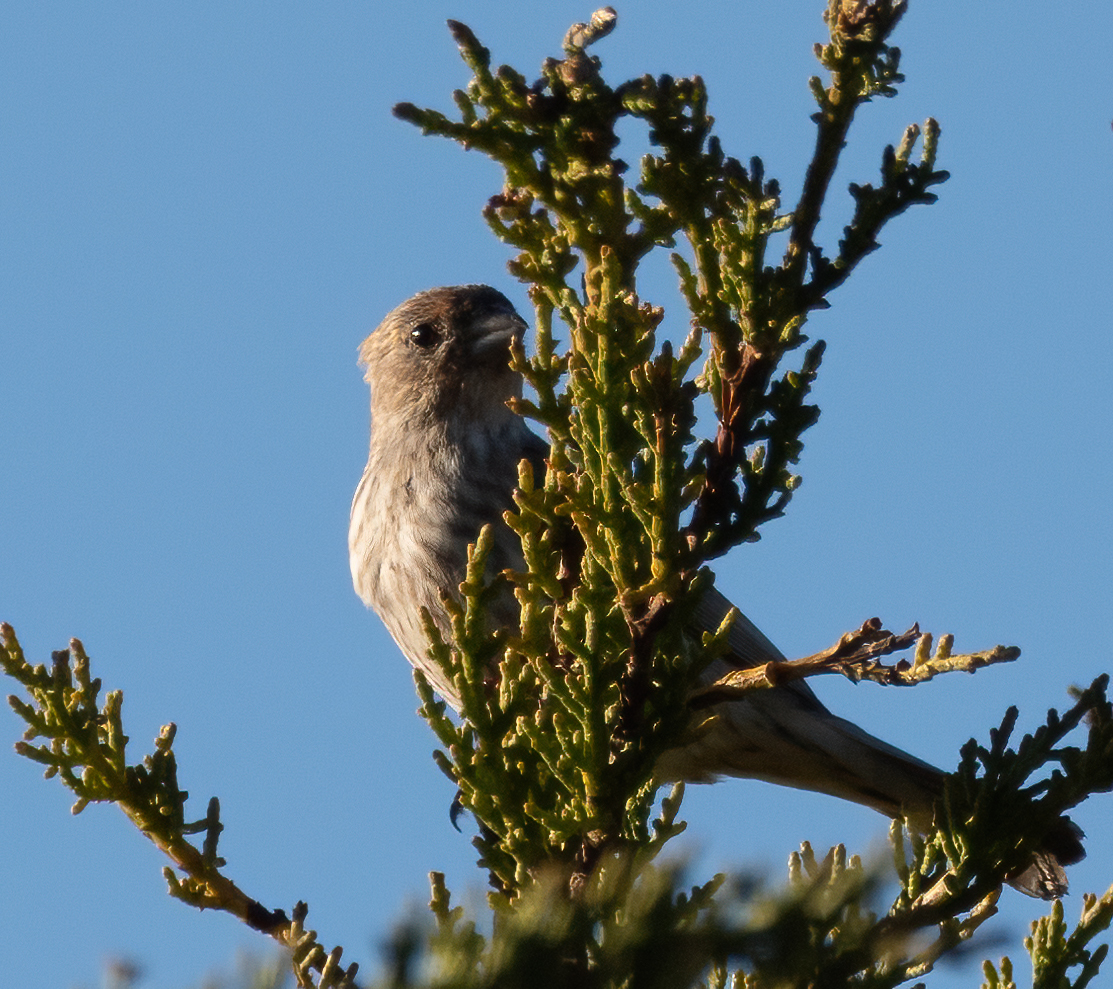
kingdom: Animalia
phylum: Chordata
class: Aves
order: Passeriformes
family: Fringillidae
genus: Haemorhous
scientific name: Haemorhous mexicanus
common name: House finch
